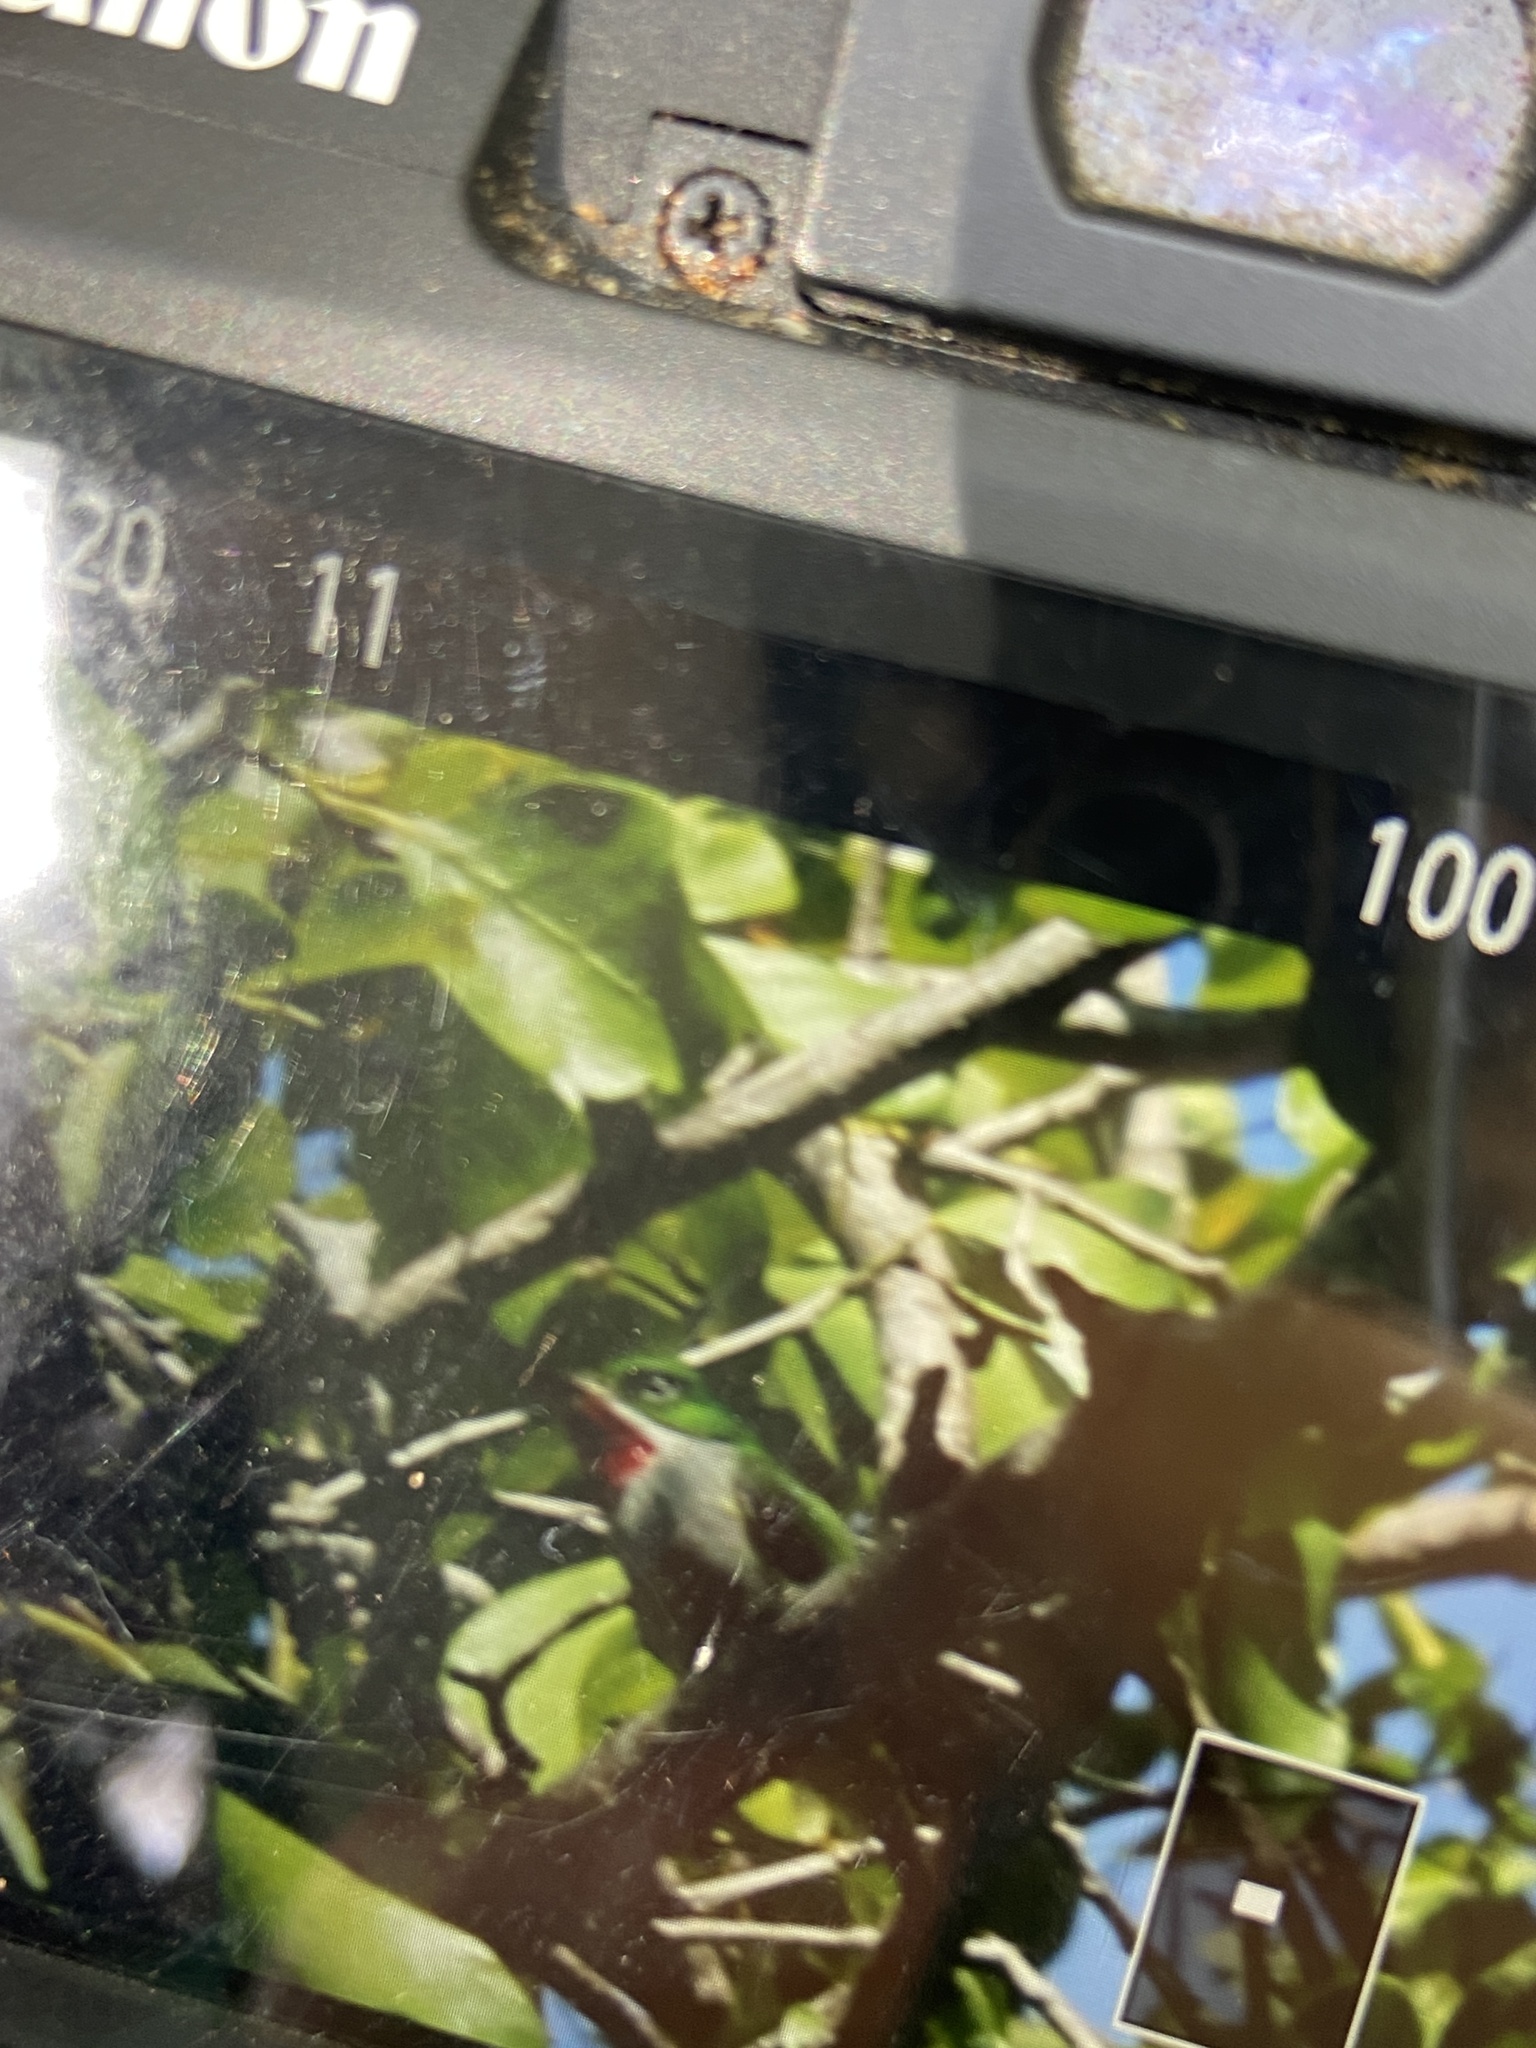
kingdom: Animalia
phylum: Chordata
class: Aves
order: Coraciiformes
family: Todidae
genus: Todus
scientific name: Todus mexicanus
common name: Puerto rican tody
